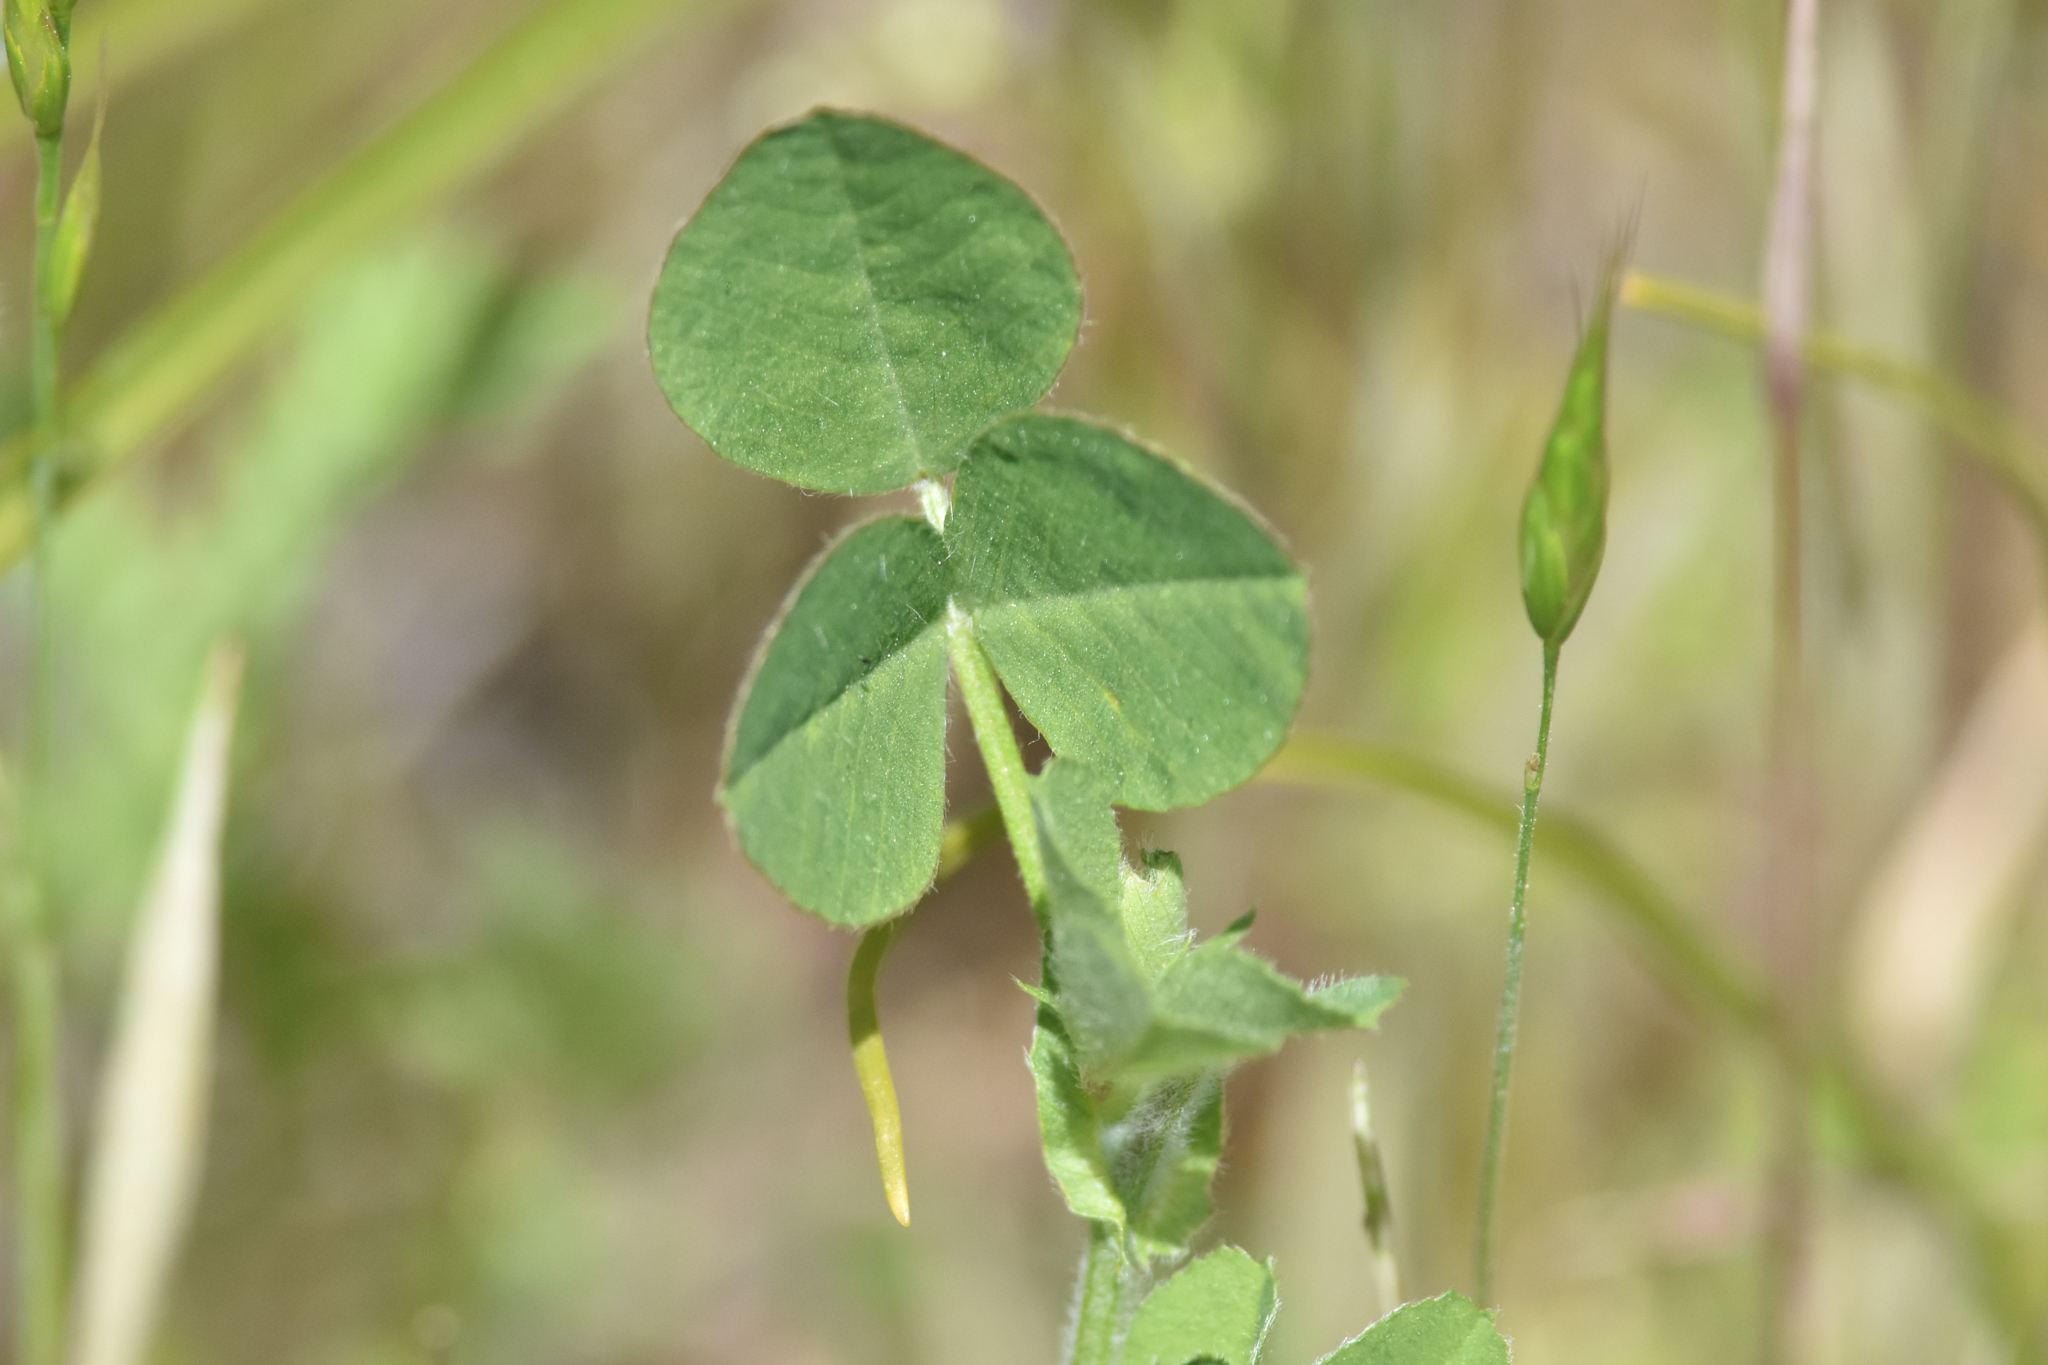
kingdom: Plantae
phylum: Tracheophyta
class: Magnoliopsida
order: Fabales
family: Fabaceae
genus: Medicago
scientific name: Medicago lupulina
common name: Black medick
